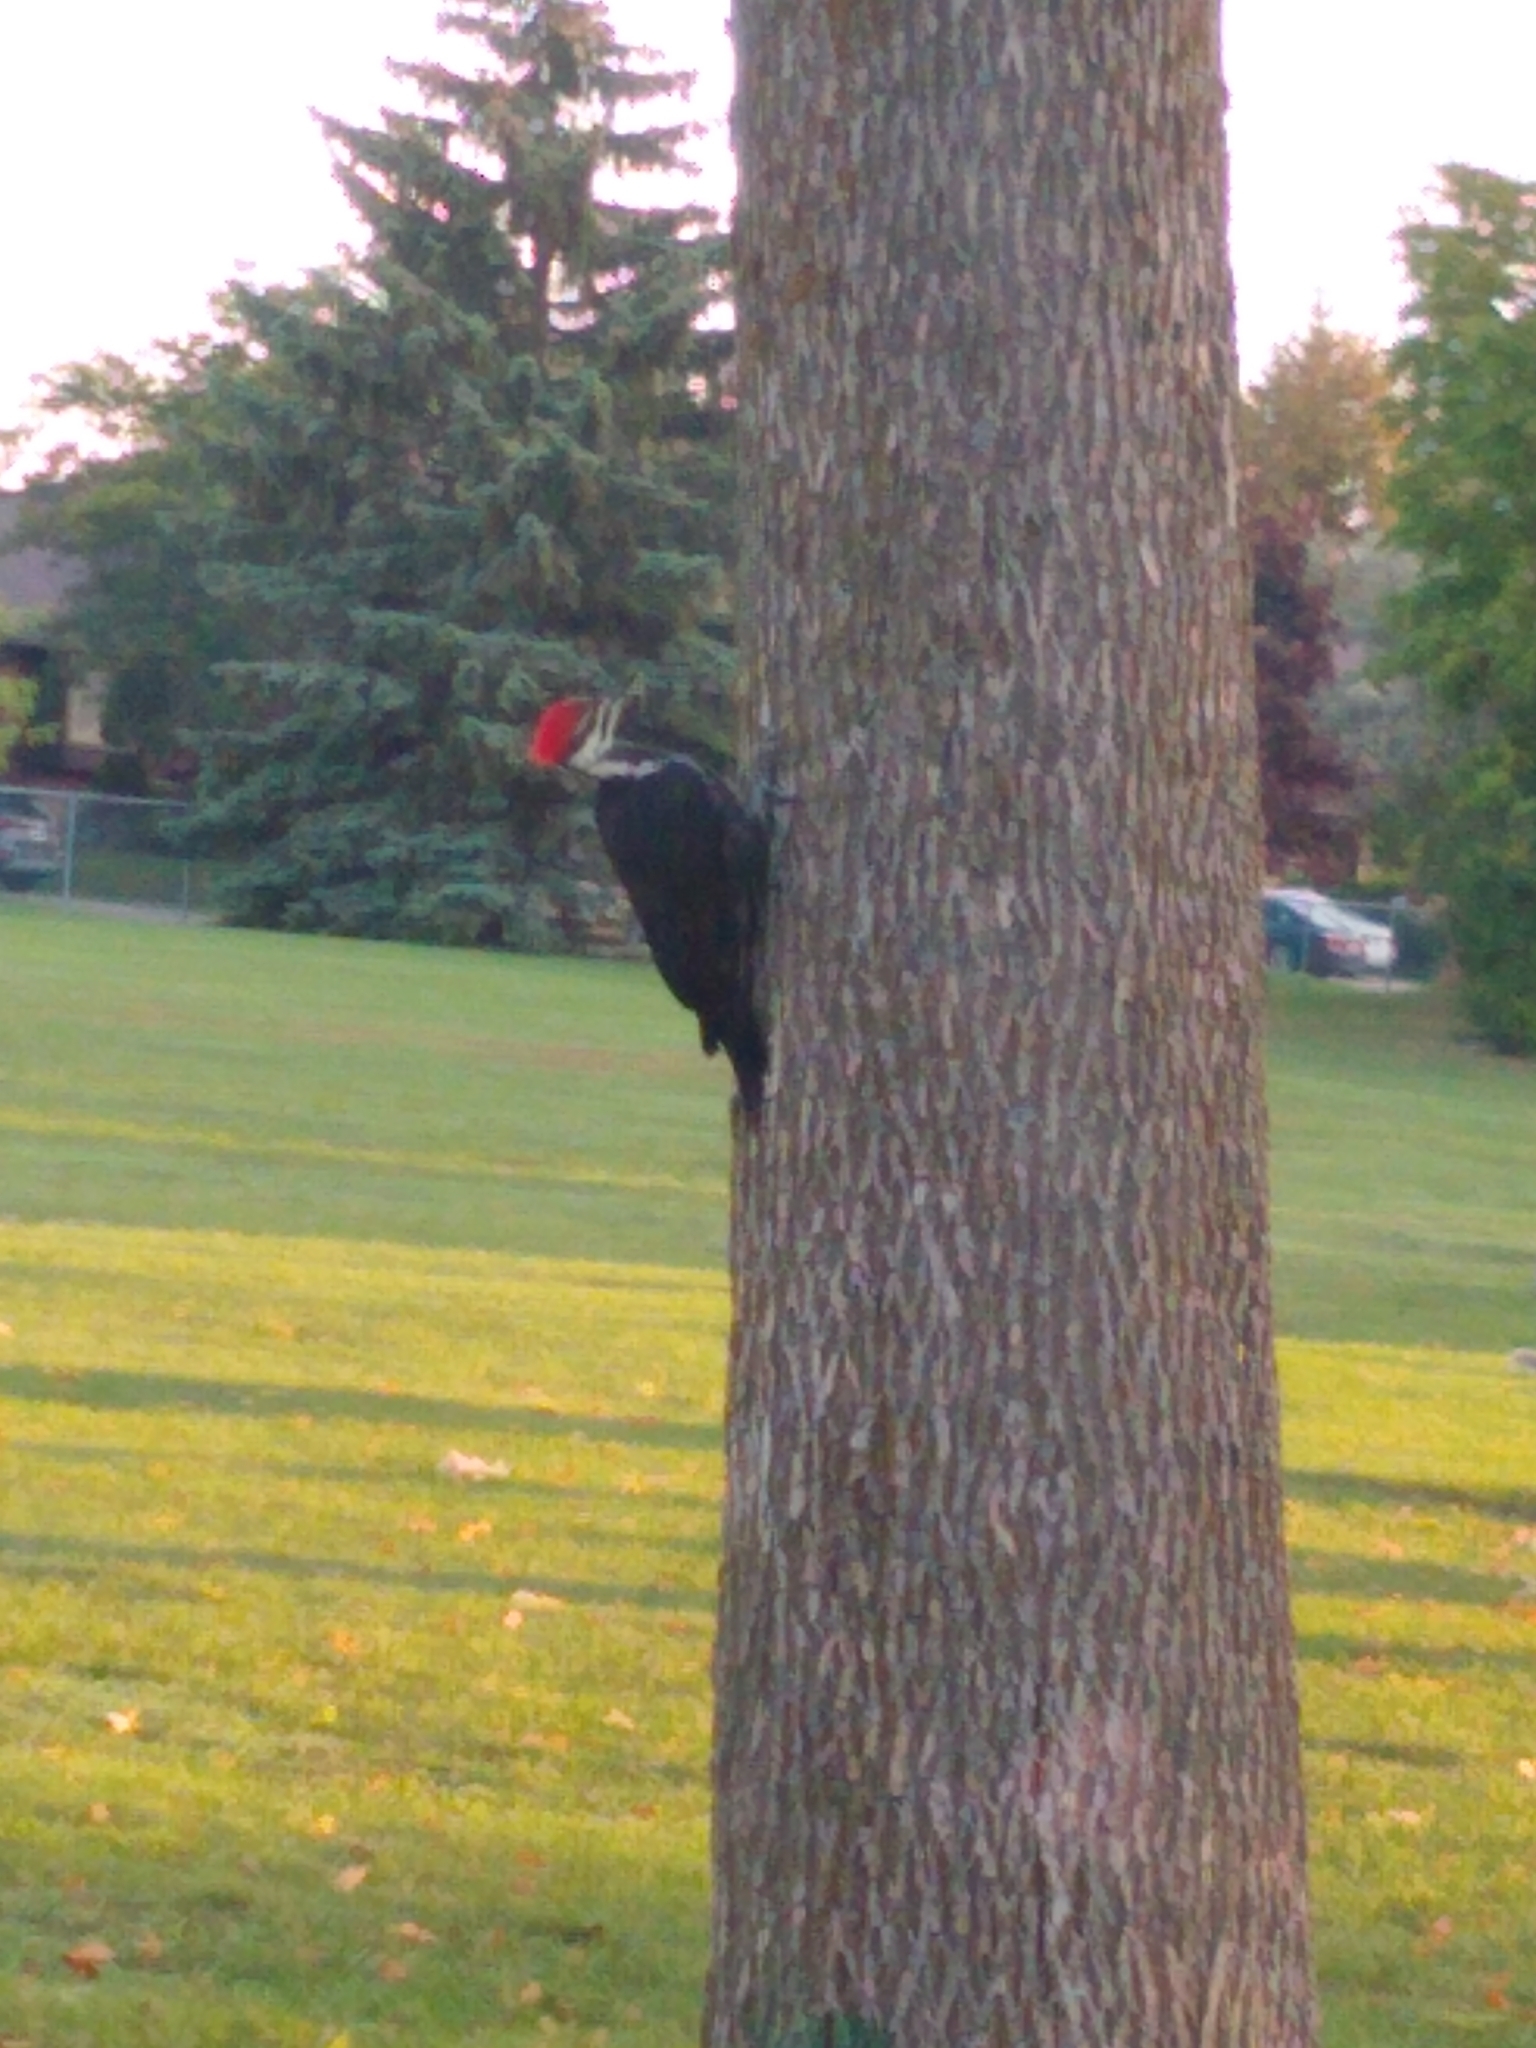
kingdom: Animalia
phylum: Chordata
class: Aves
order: Piciformes
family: Picidae
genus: Dryocopus
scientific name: Dryocopus pileatus
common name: Pileated woodpecker
